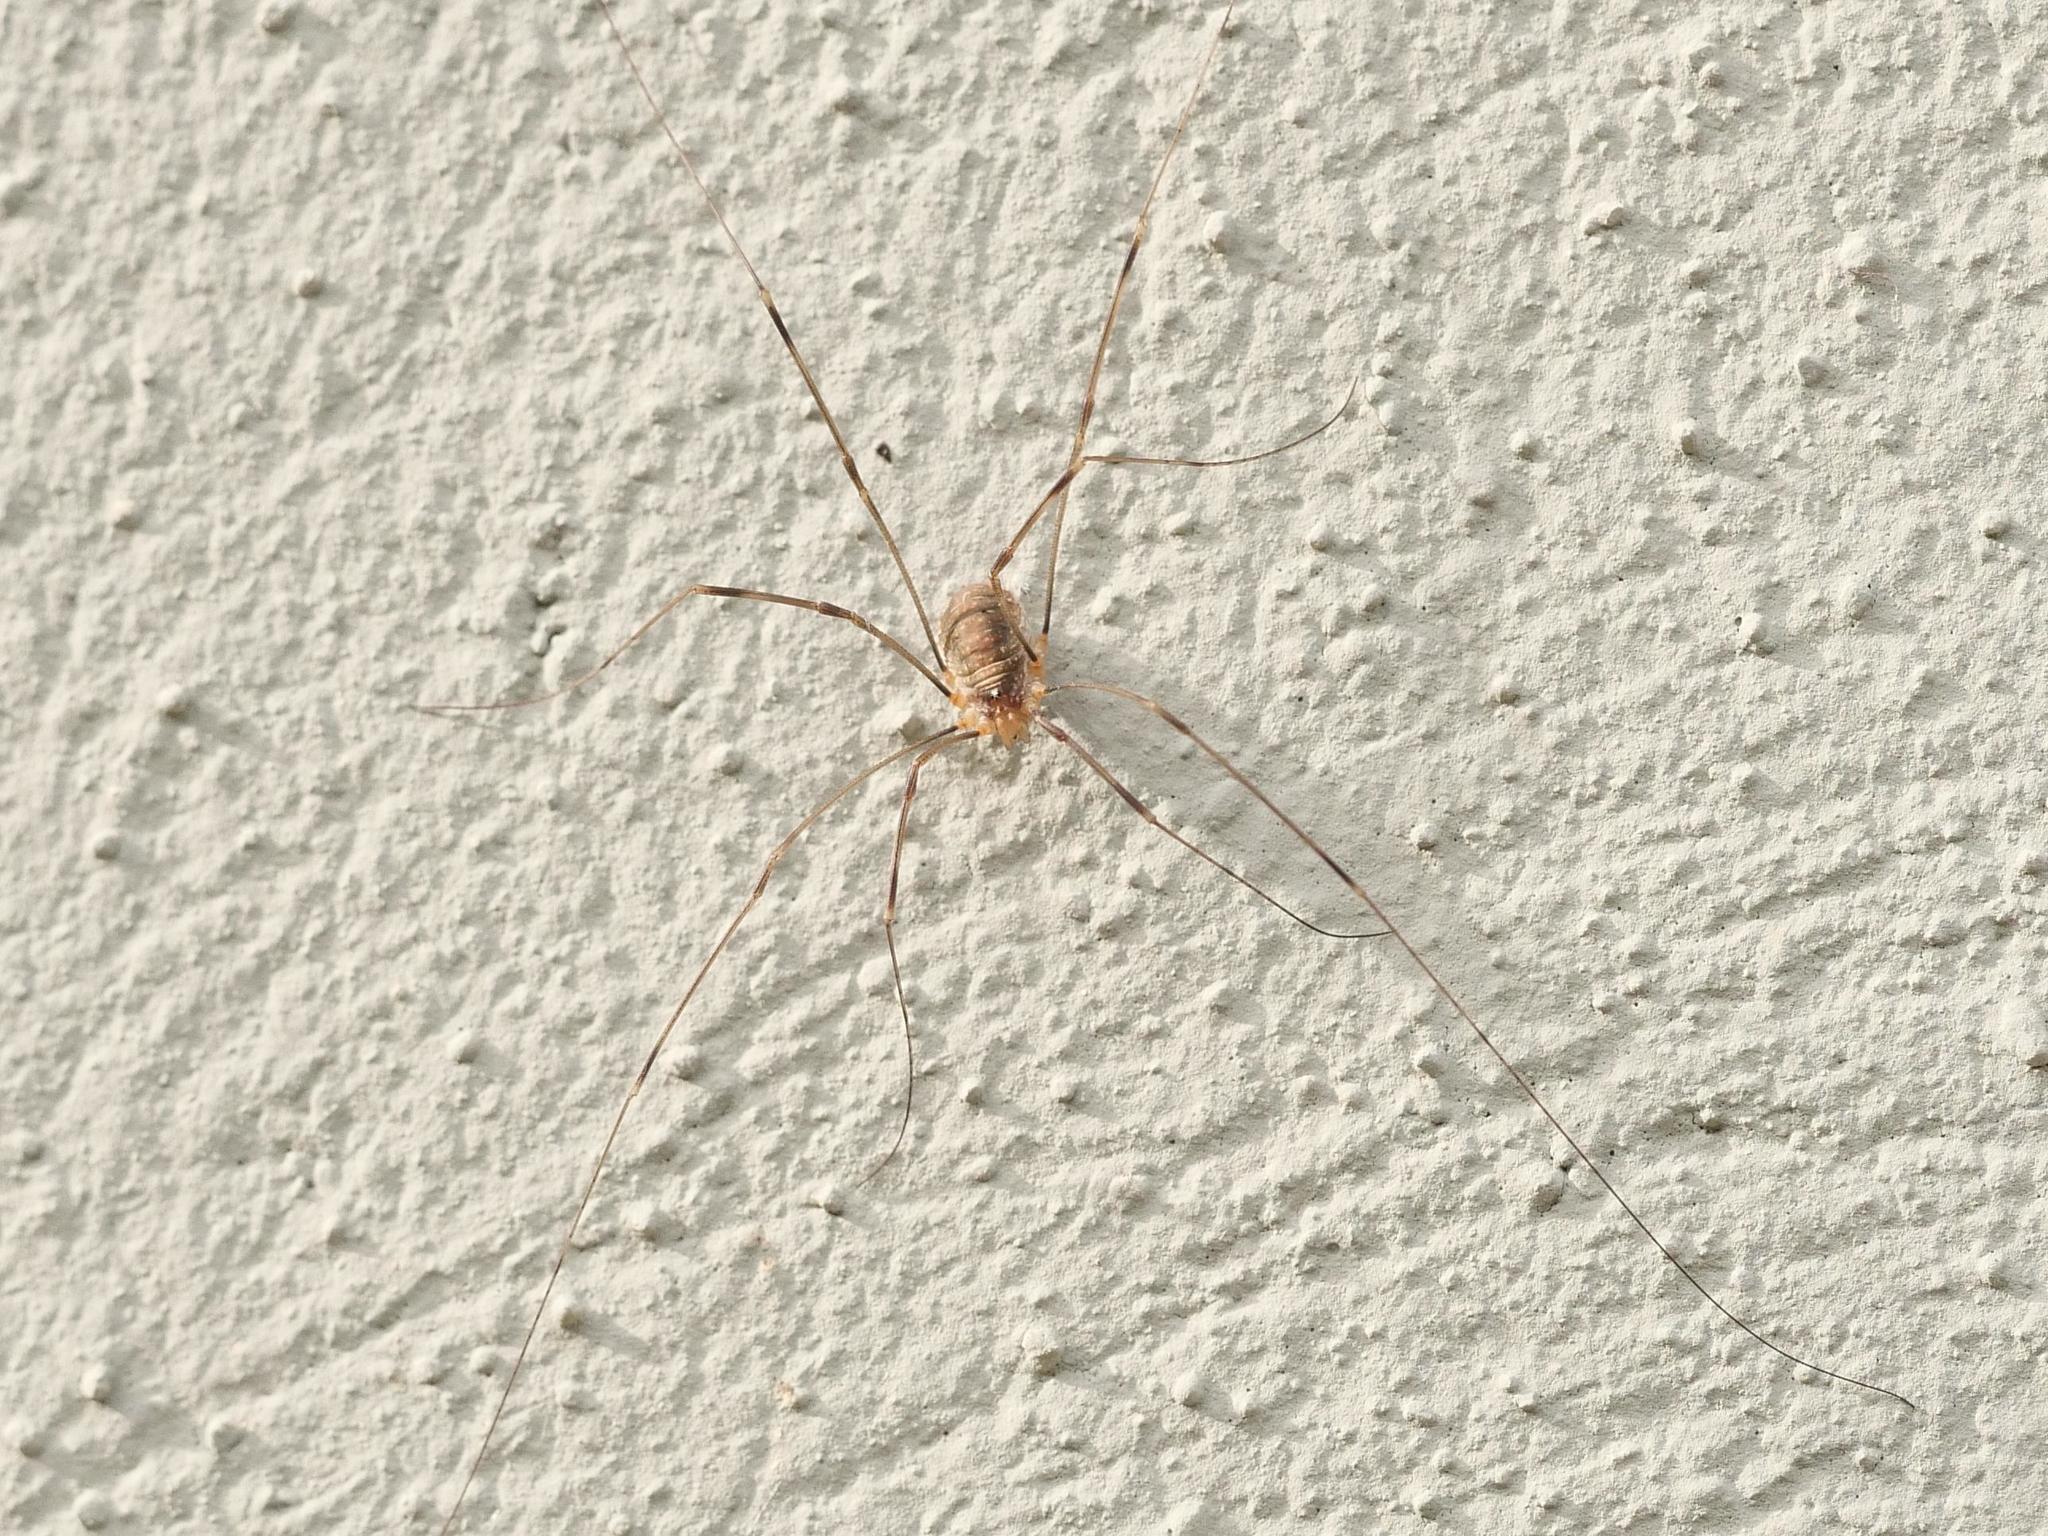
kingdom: Animalia
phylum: Arthropoda
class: Arachnida
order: Opiliones
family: Phalangiidae
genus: Opilio
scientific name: Opilio canestrinii
